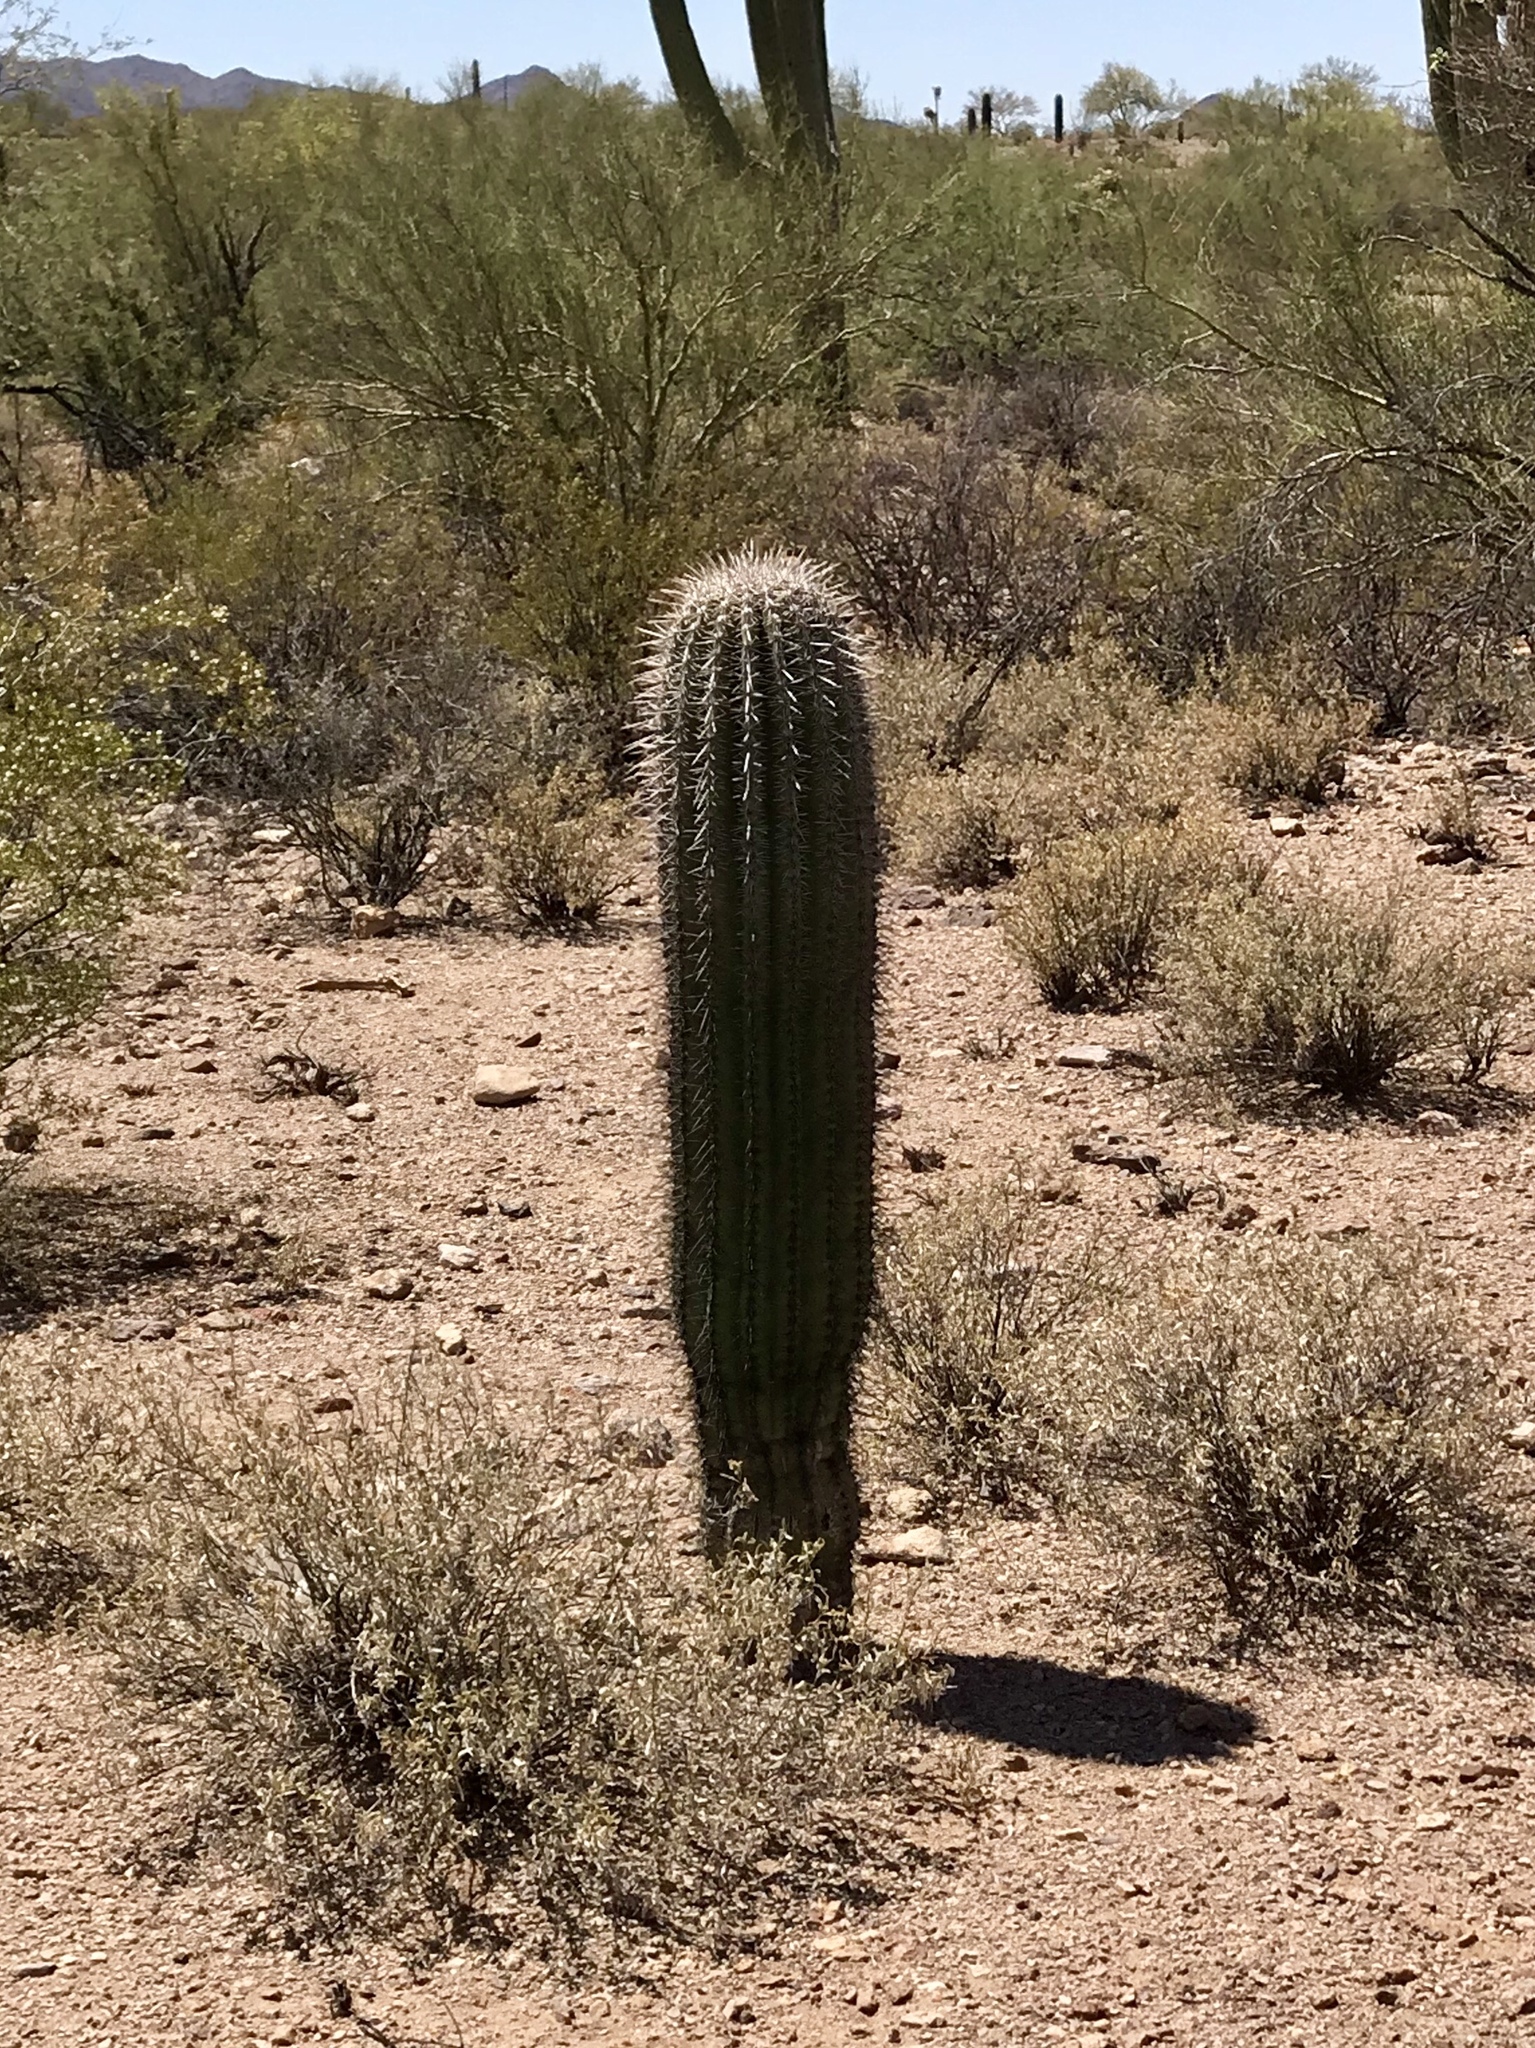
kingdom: Plantae
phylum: Tracheophyta
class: Magnoliopsida
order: Caryophyllales
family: Cactaceae
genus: Carnegiea
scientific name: Carnegiea gigantea
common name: Saguaro
